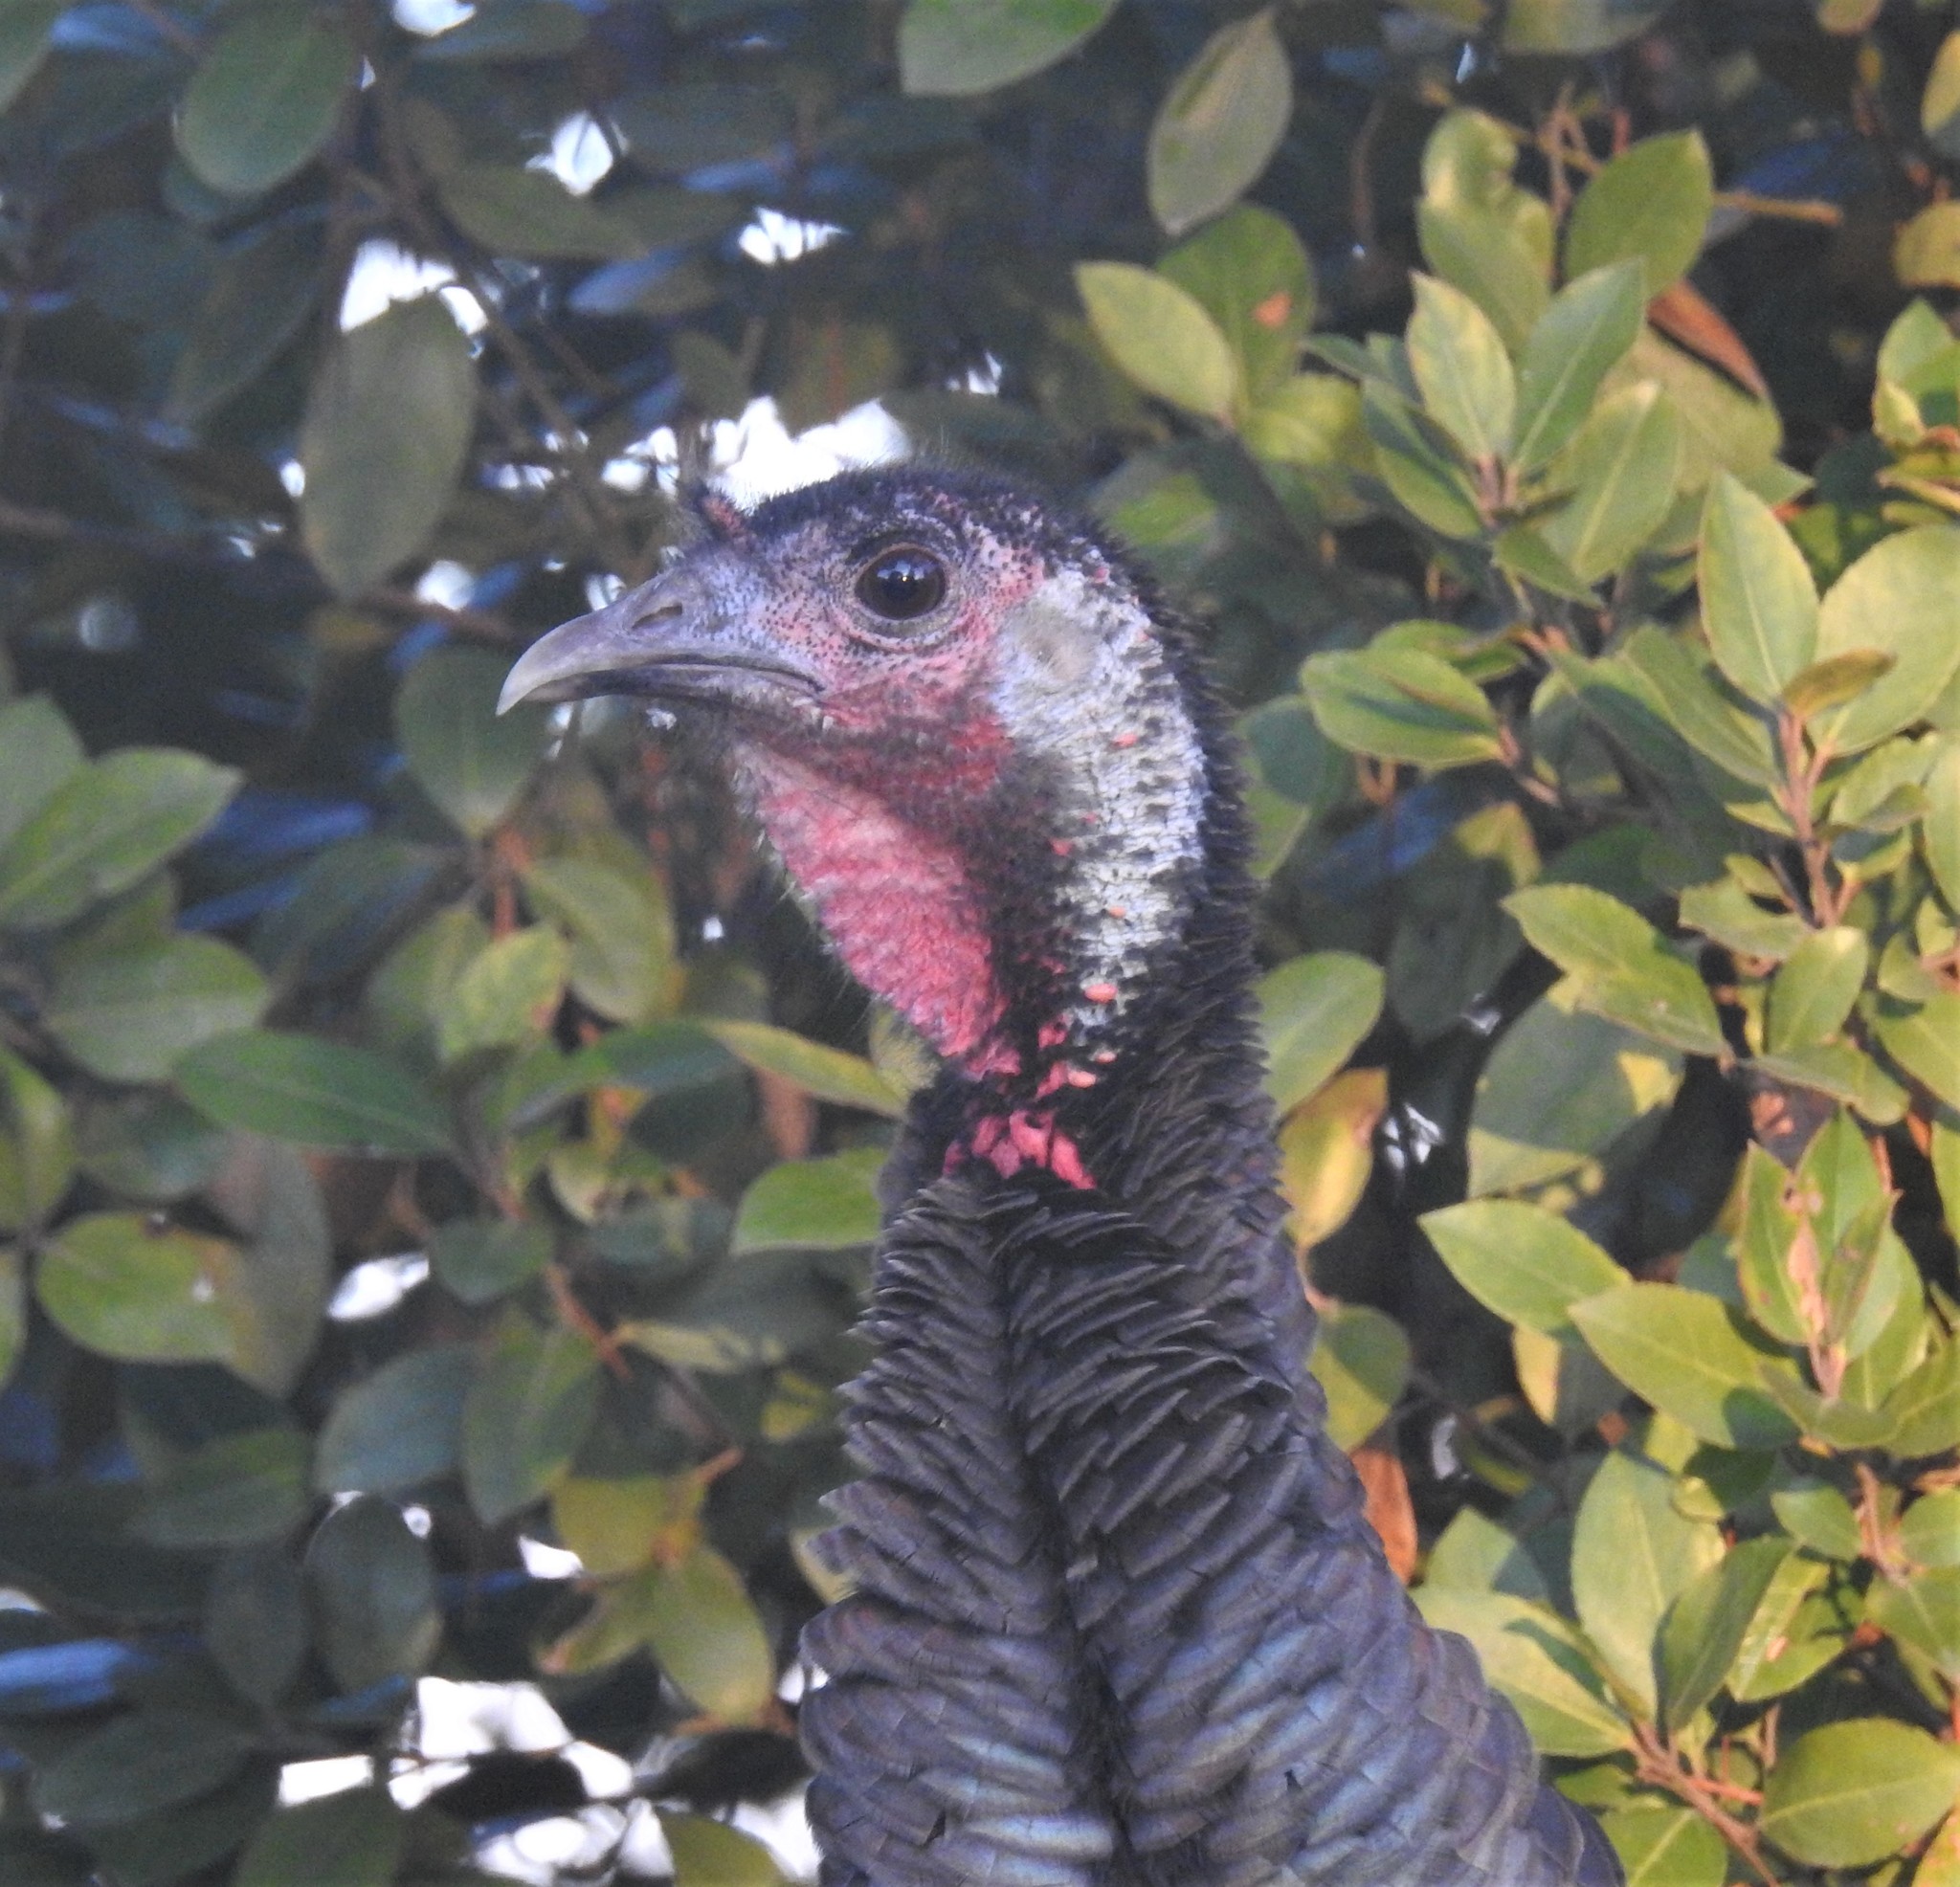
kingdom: Animalia
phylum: Chordata
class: Aves
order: Galliformes
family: Phasianidae
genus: Meleagris
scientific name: Meleagris gallopavo
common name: Wild turkey
